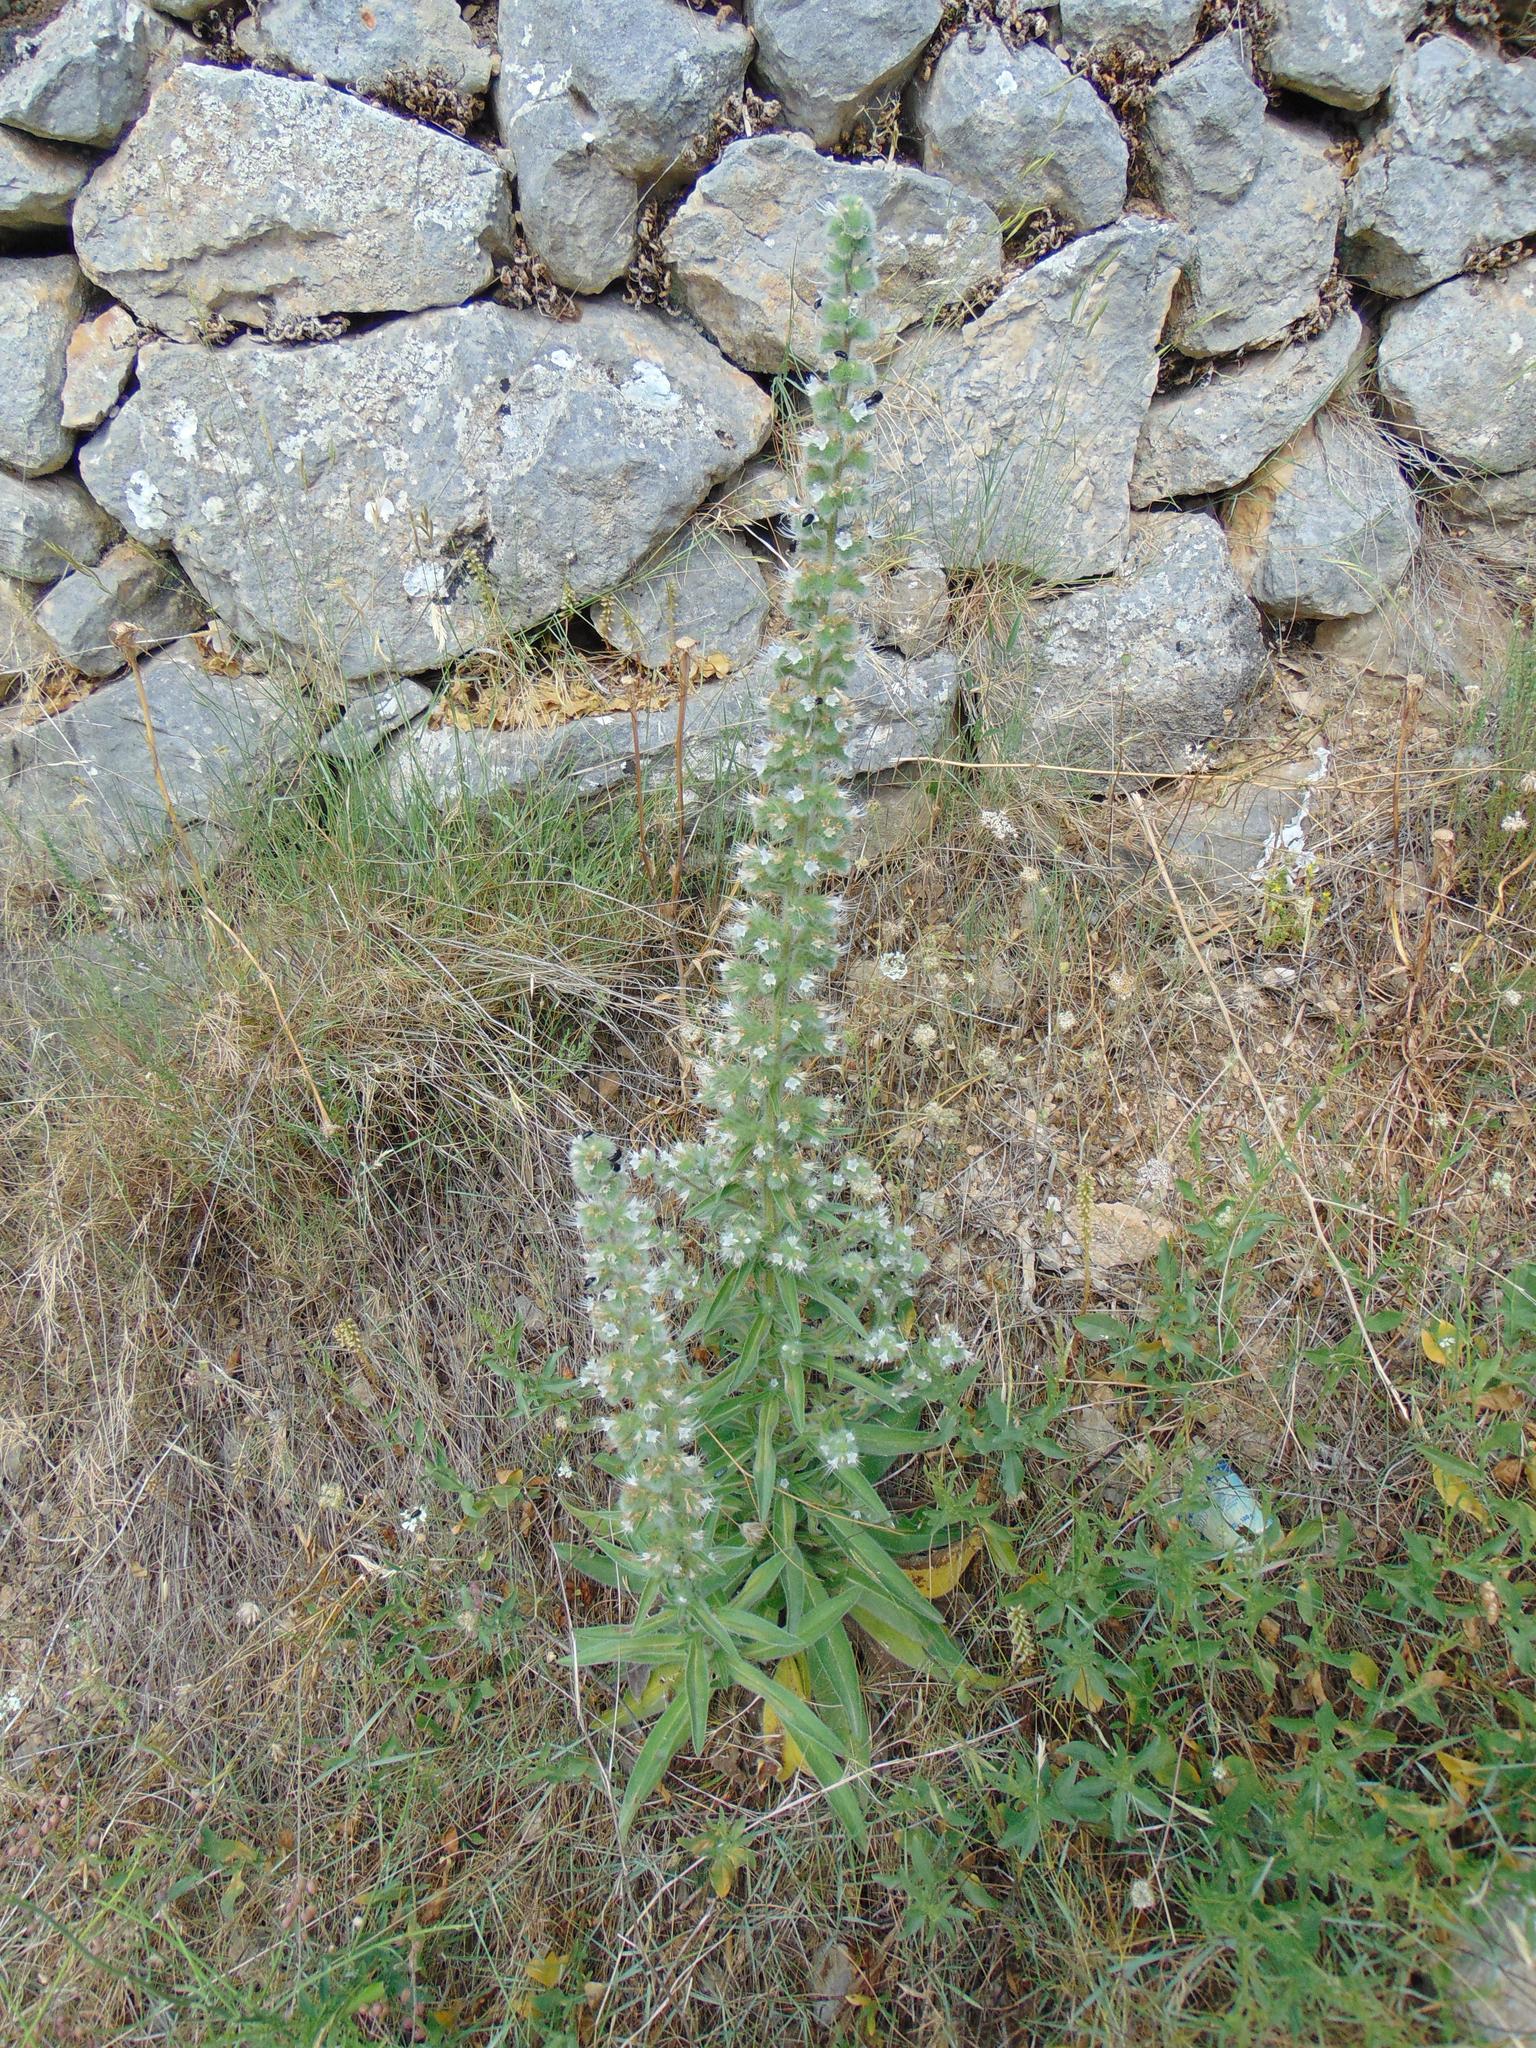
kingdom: Plantae
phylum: Tracheophyta
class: Magnoliopsida
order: Boraginales
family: Boraginaceae
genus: Echium
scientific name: Echium italicum
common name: Italian viper's bugloss
